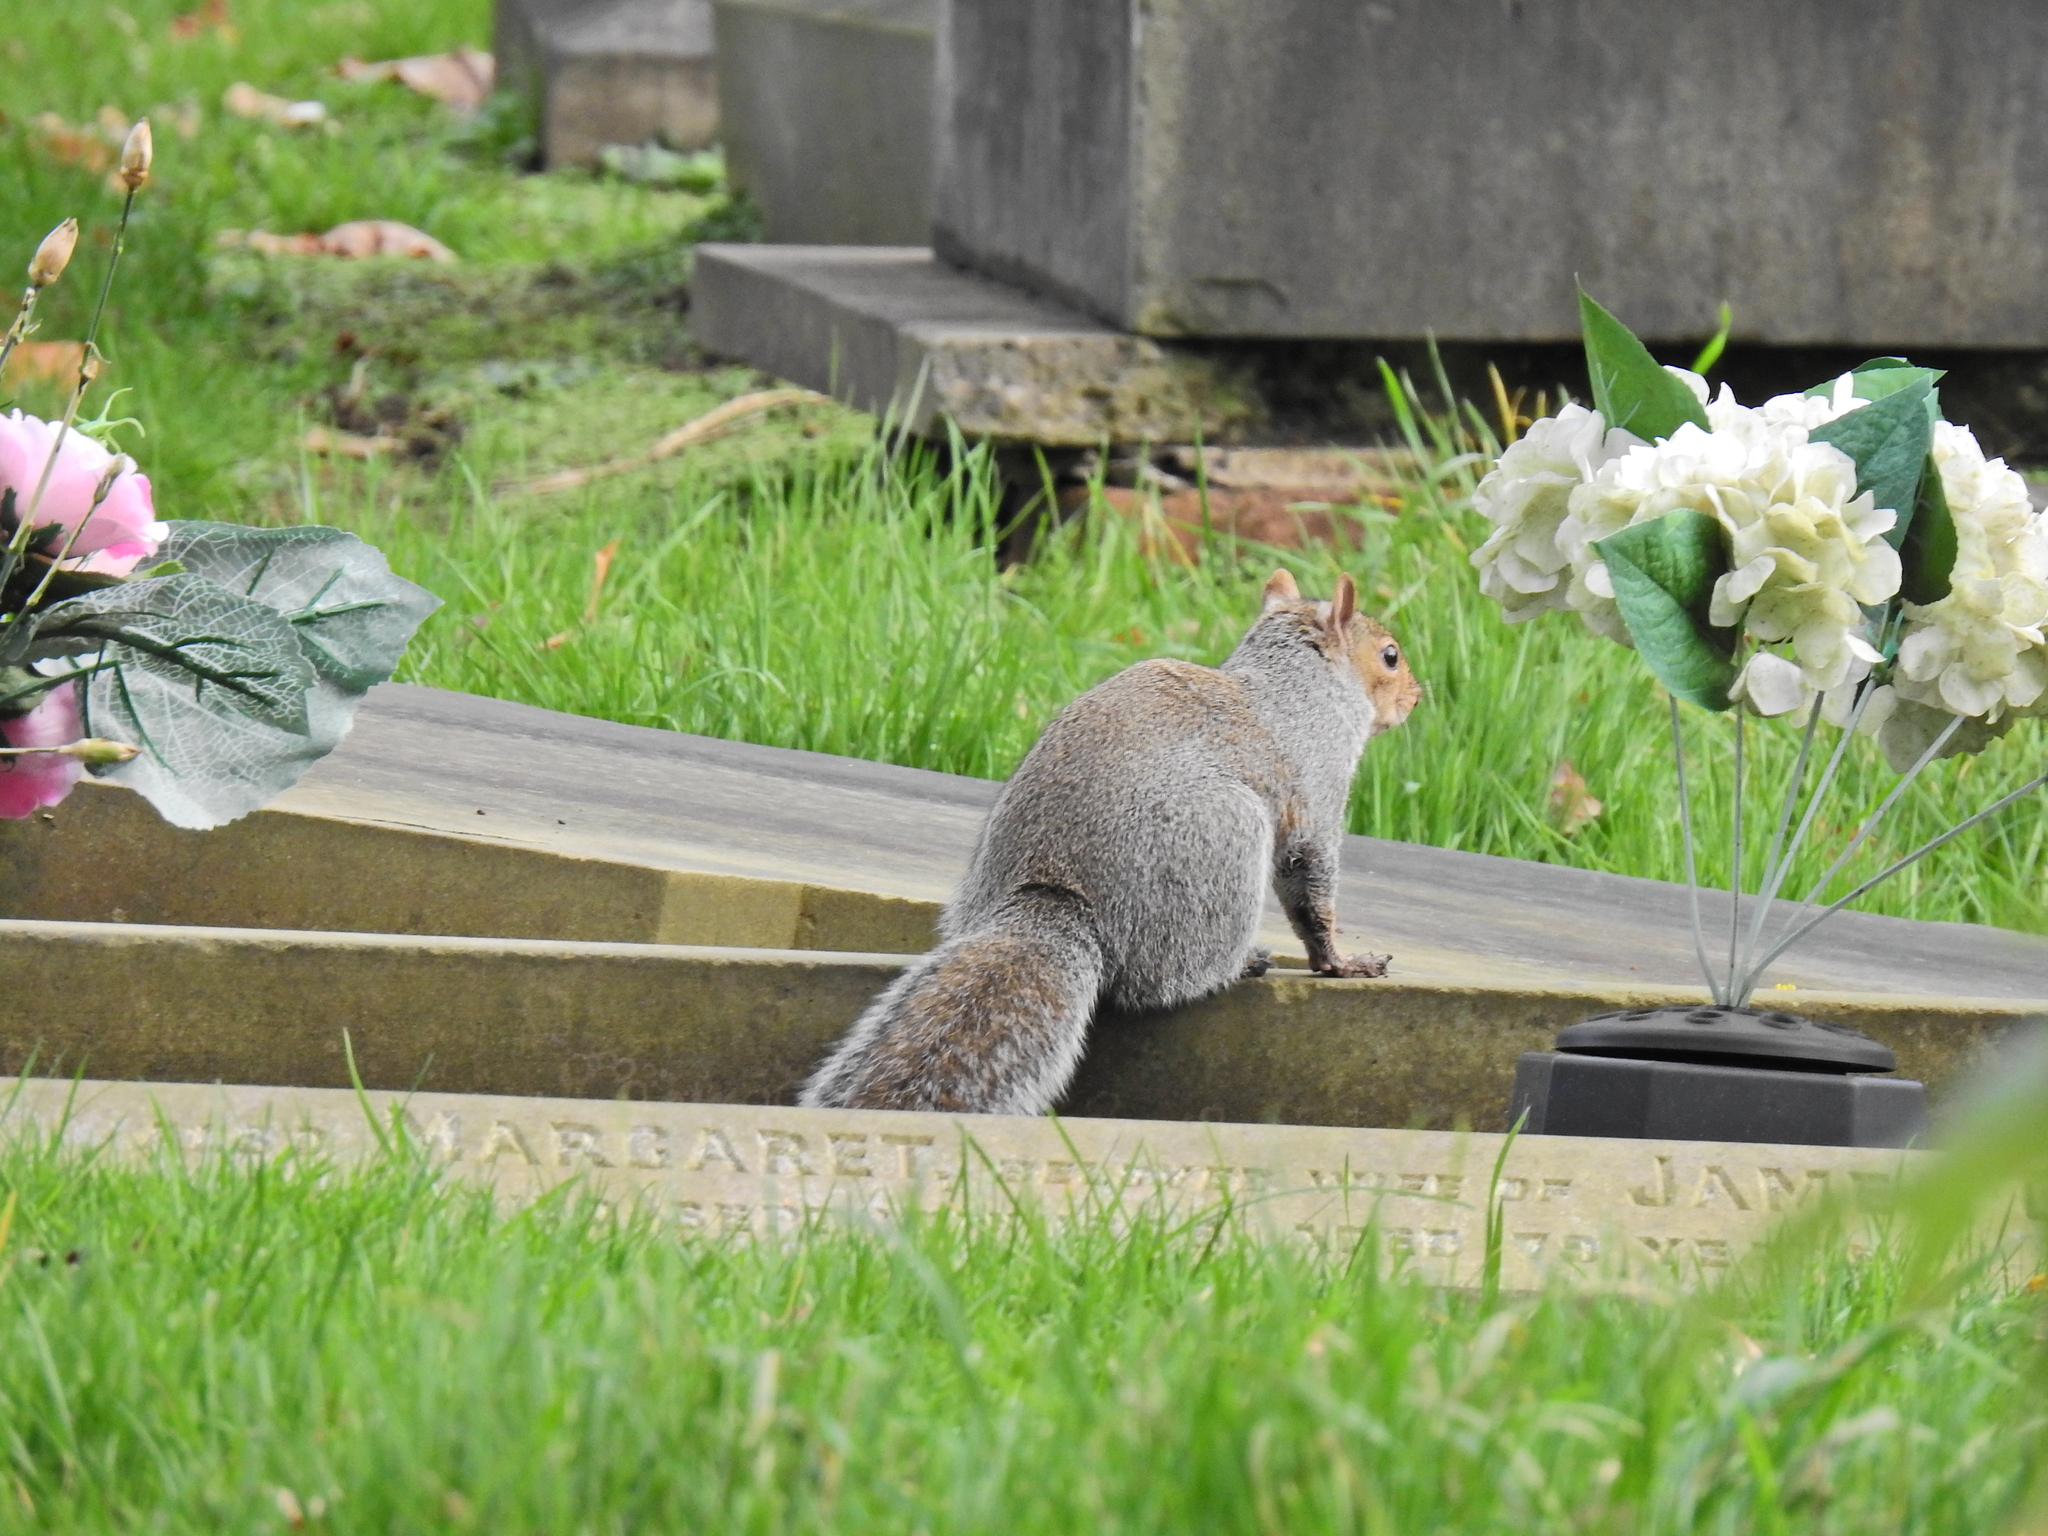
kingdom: Animalia
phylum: Chordata
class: Mammalia
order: Rodentia
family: Sciuridae
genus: Sciurus
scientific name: Sciurus carolinensis
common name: Eastern gray squirrel
